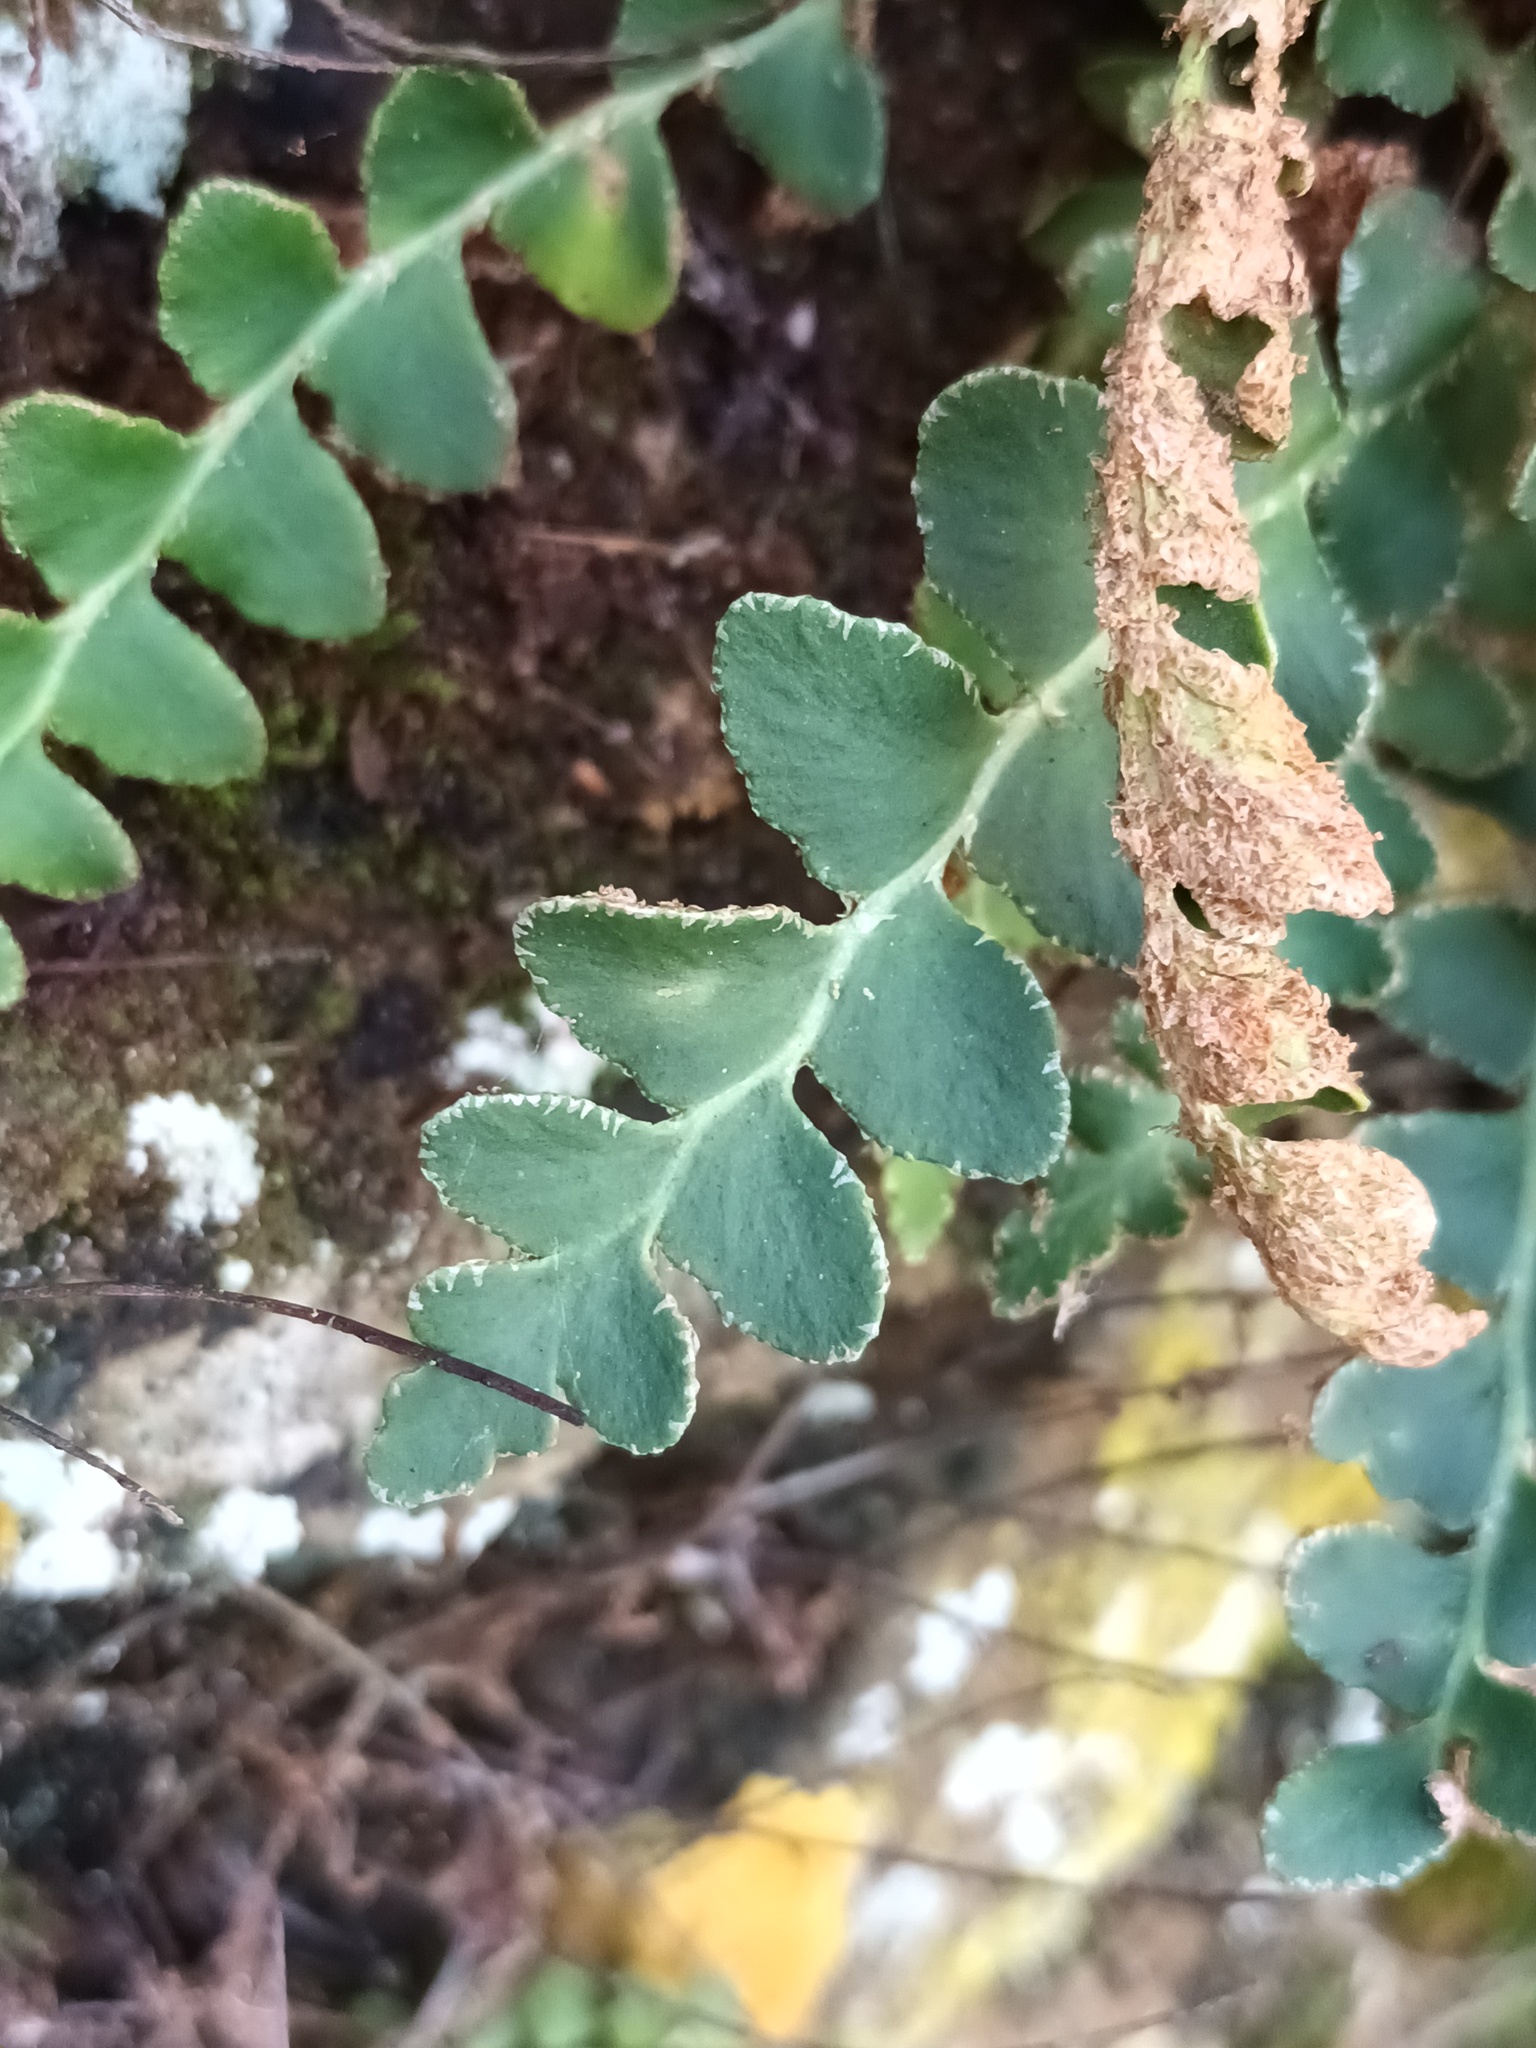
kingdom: Plantae
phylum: Tracheophyta
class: Polypodiopsida
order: Polypodiales
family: Aspleniaceae
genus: Asplenium
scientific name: Asplenium ceterach
